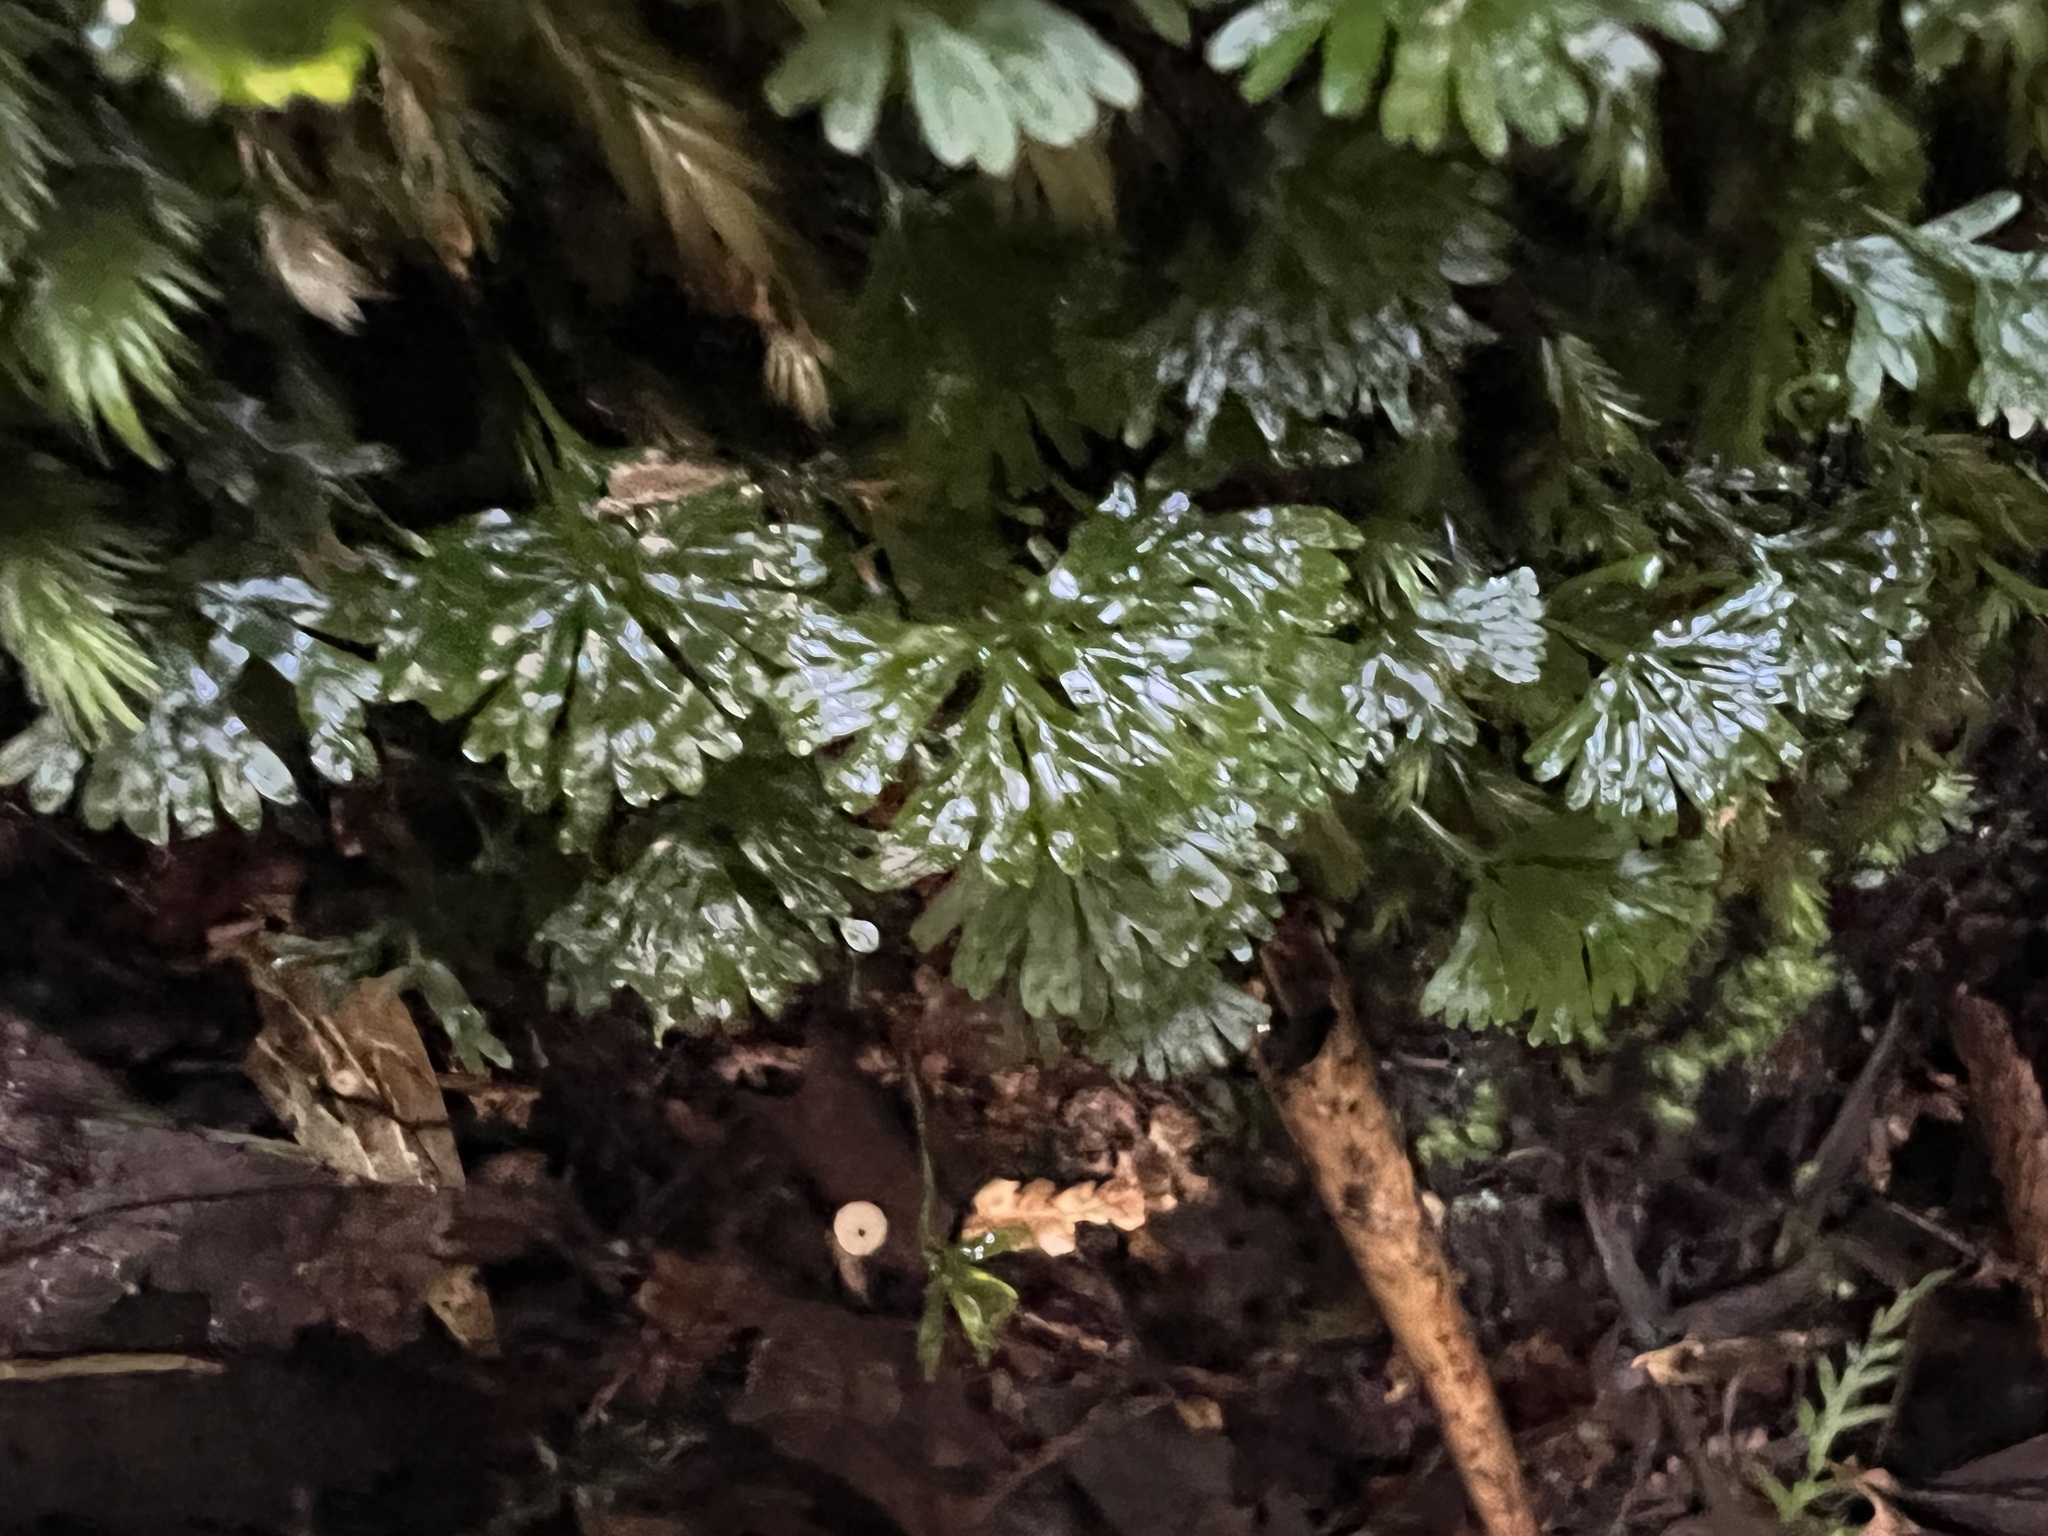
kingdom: Plantae
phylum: Marchantiophyta
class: Jungermanniopsida
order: Pallaviciniales
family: Hymenophytaceae
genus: Hymenophyton
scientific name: Hymenophyton flabellatum
